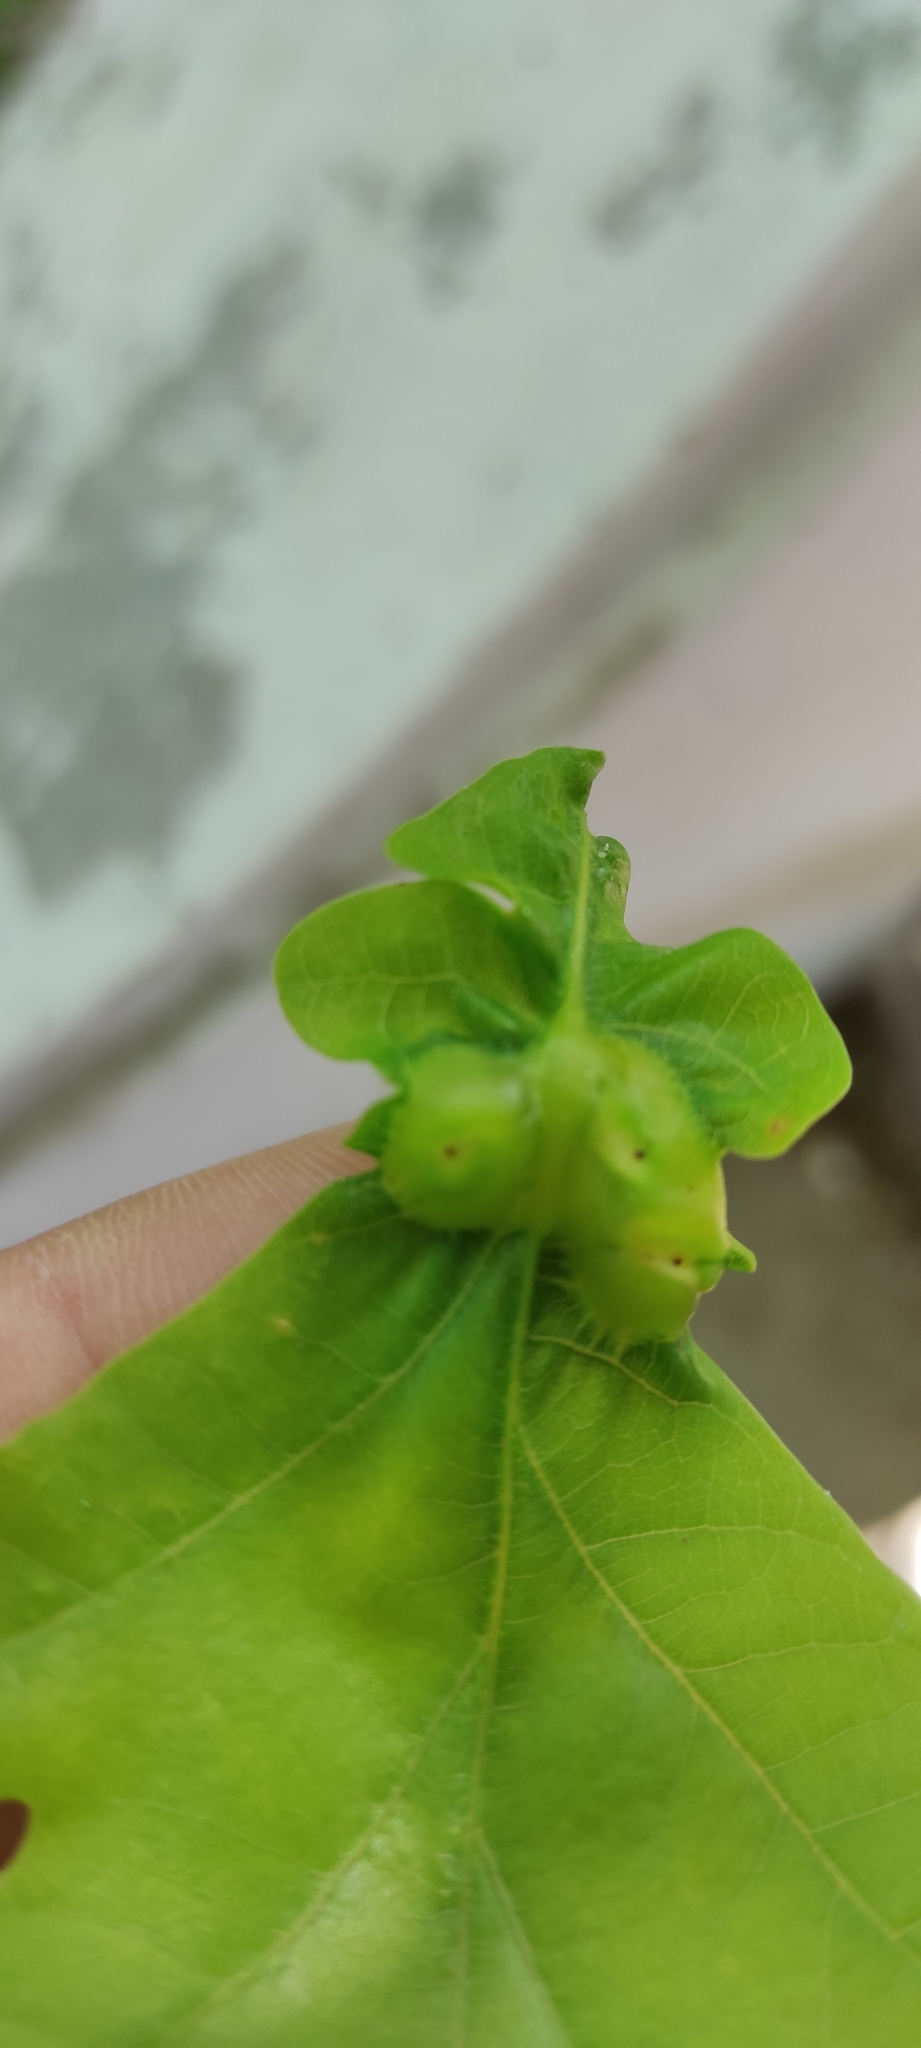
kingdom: Animalia
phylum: Arthropoda
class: Insecta
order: Hymenoptera
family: Cynipidae
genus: Andricus
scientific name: Andricus curvator
